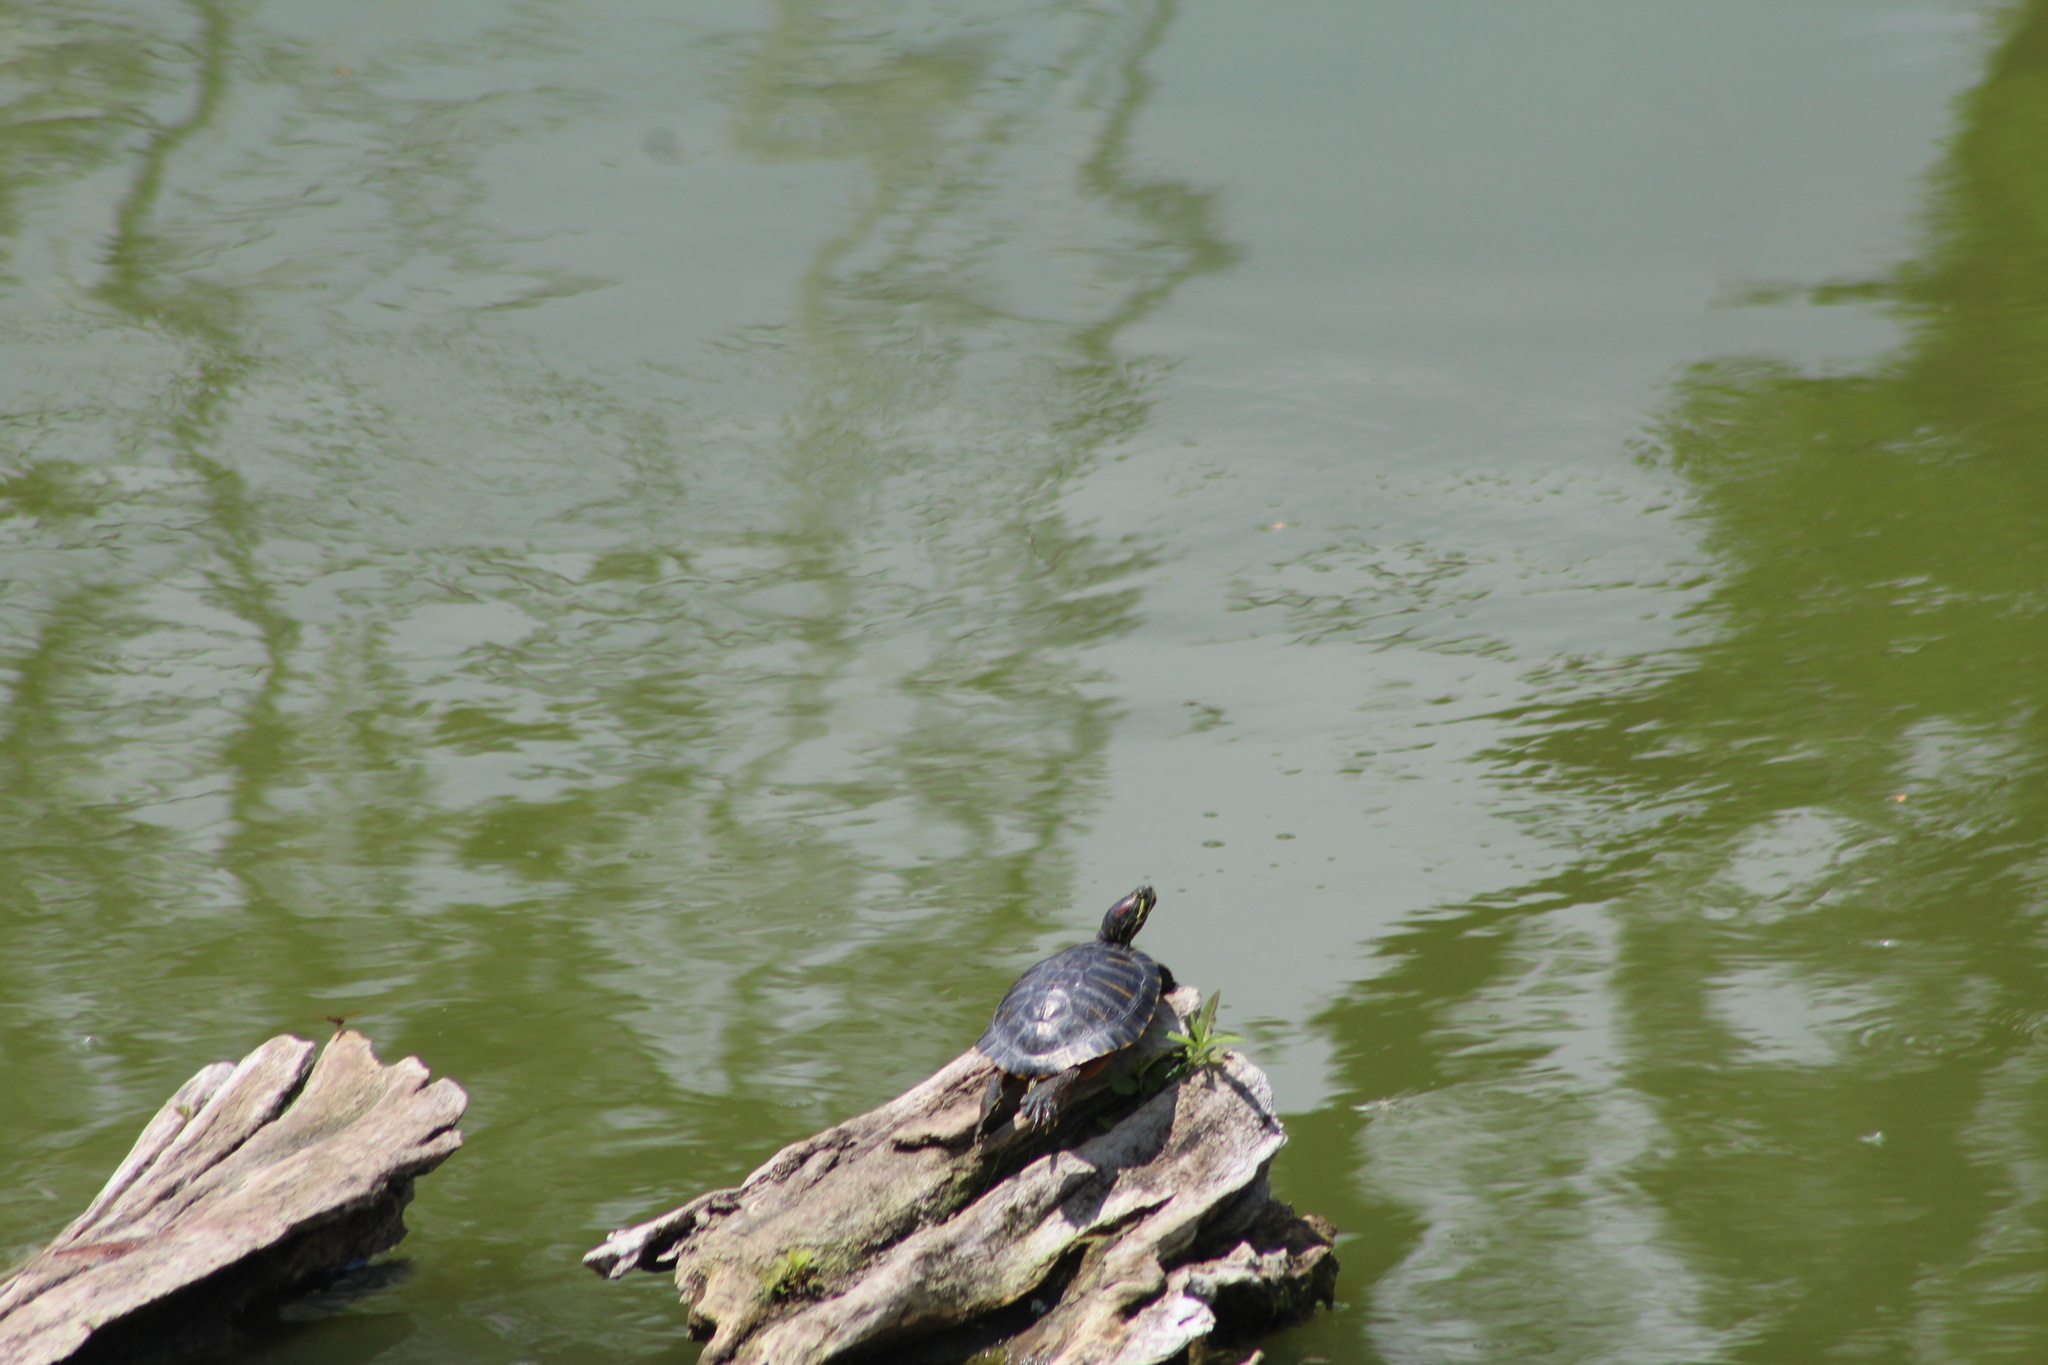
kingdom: Animalia
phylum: Chordata
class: Testudines
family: Emydidae
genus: Trachemys
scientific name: Trachemys scripta
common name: Slider
